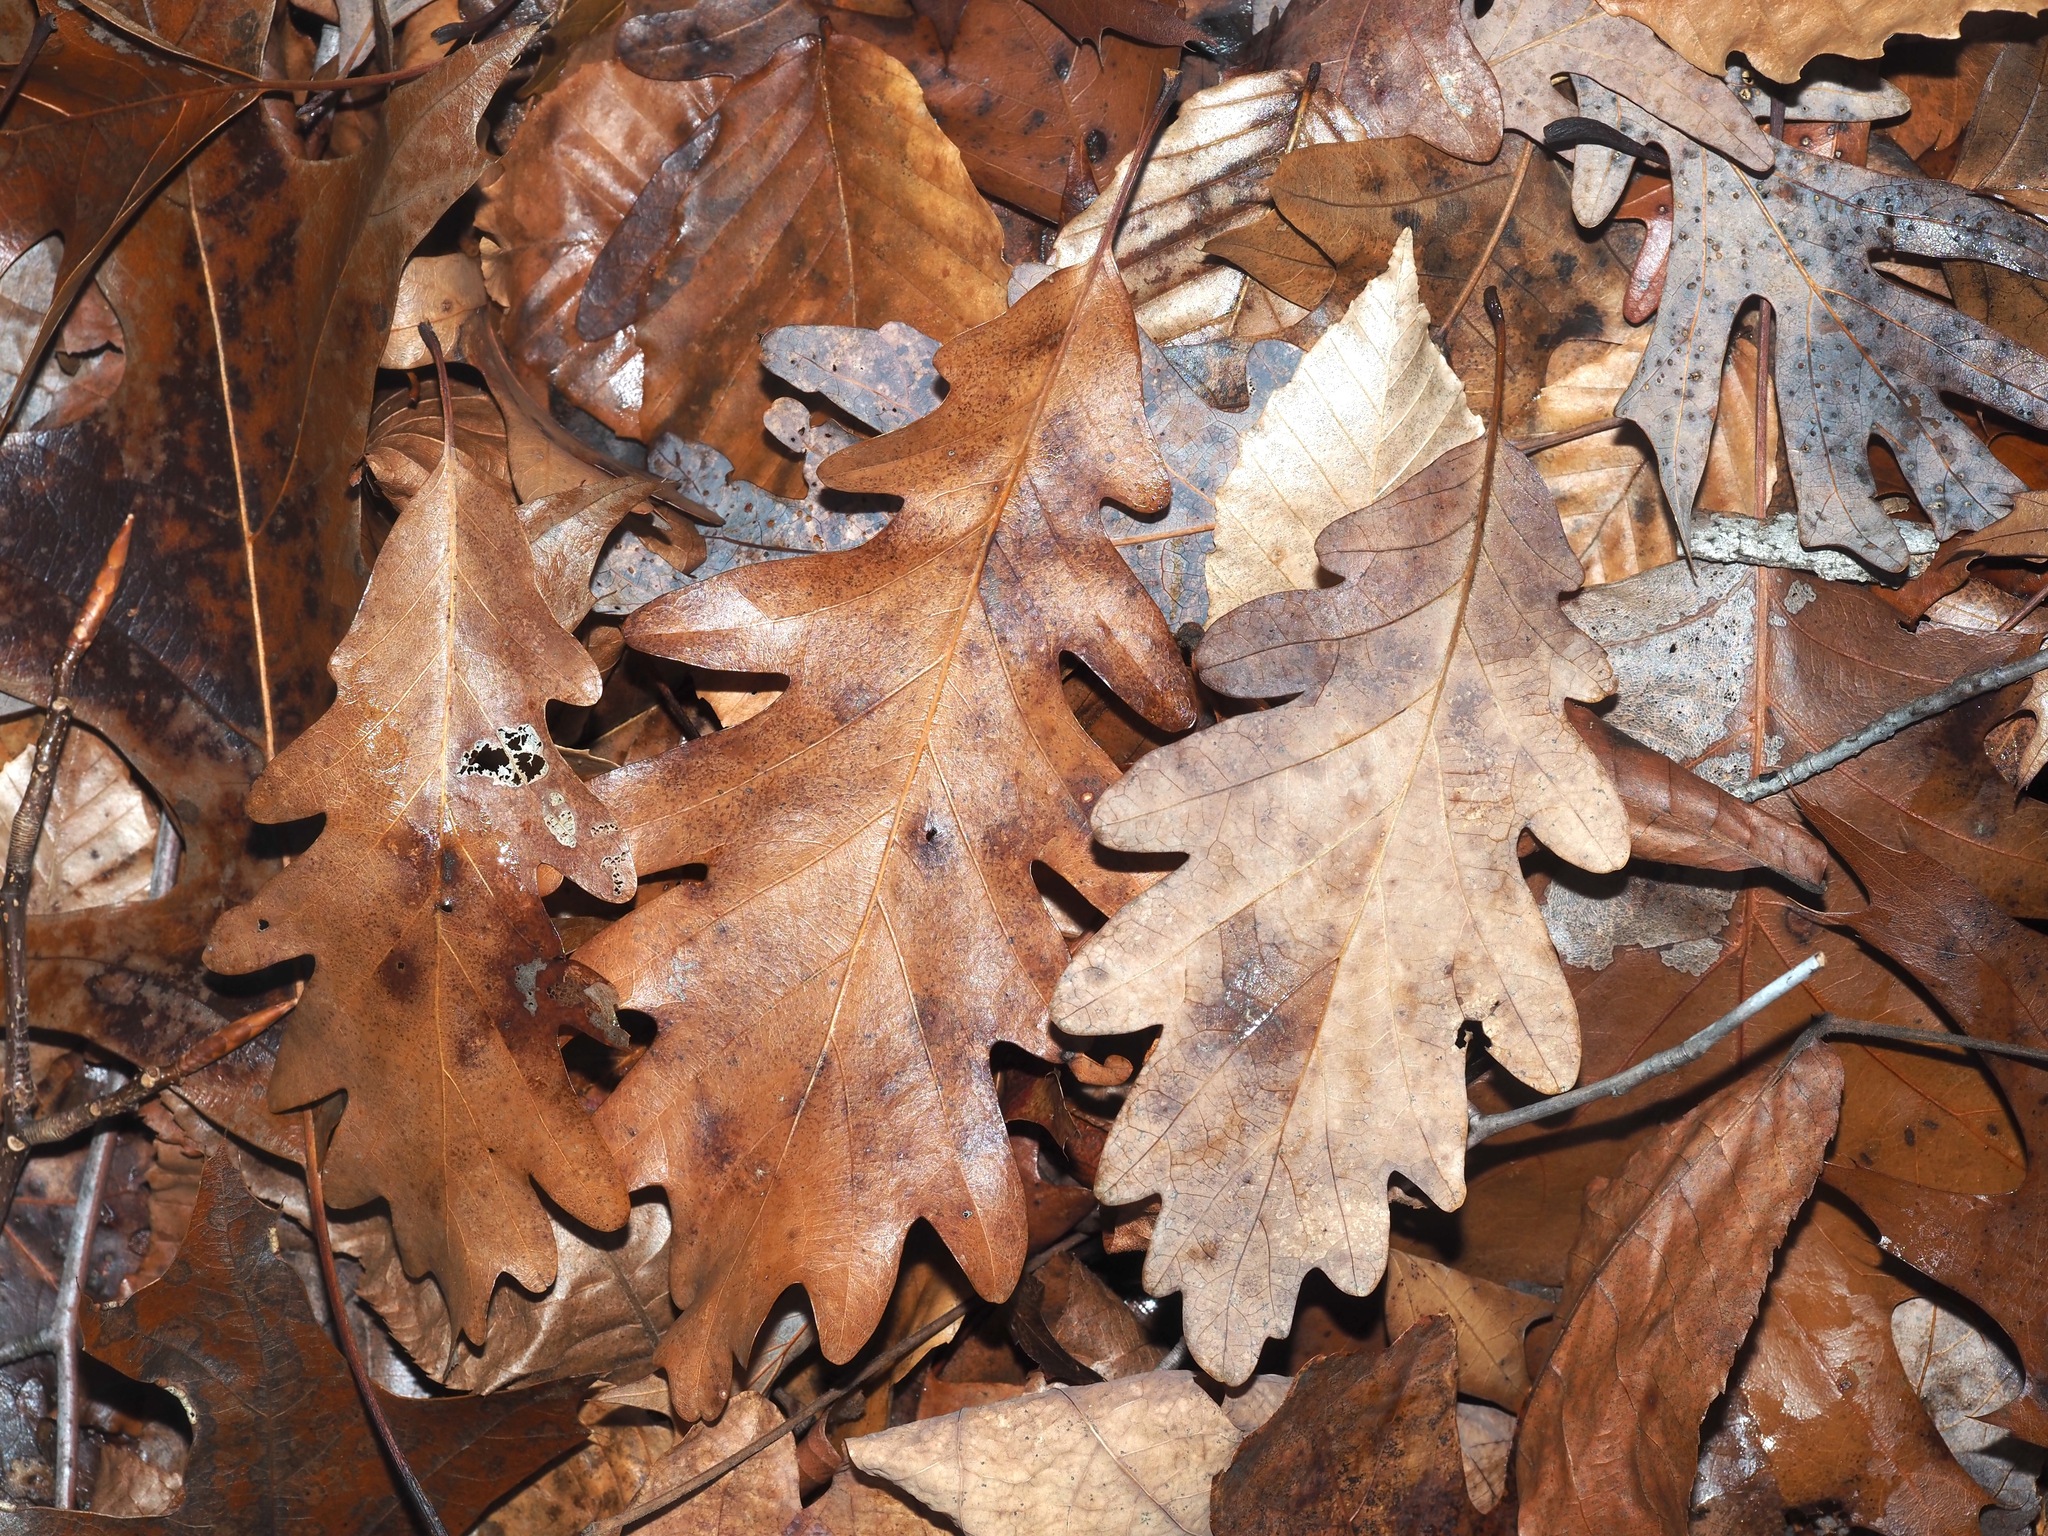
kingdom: Plantae
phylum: Tracheophyta
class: Magnoliopsida
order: Fagales
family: Fagaceae
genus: Quercus
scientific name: Quercus alba
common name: White oak
